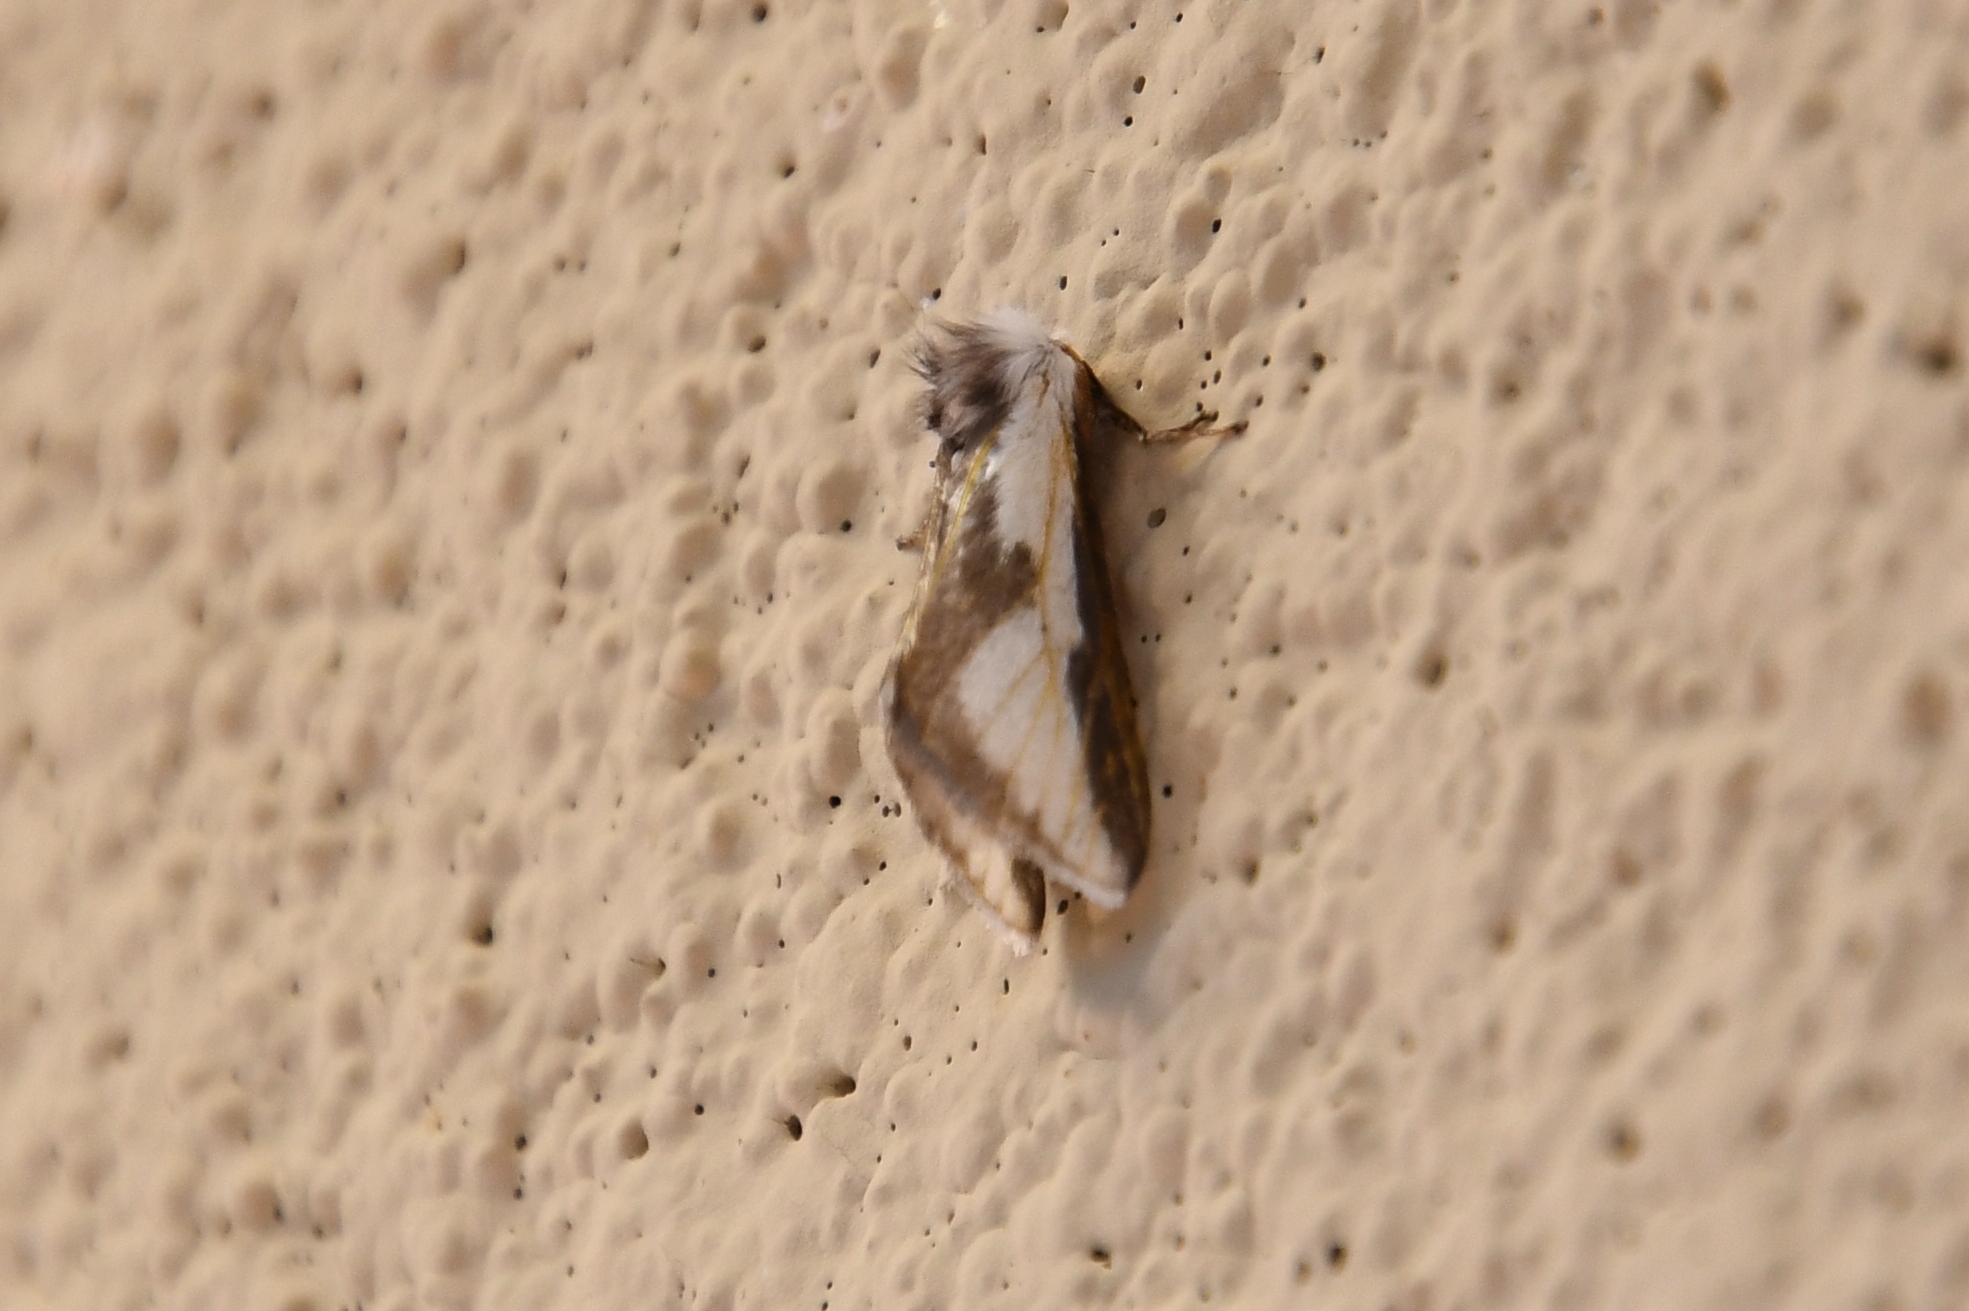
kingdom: Animalia
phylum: Arthropoda
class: Insecta
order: Lepidoptera
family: Megalopygidae
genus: Norape
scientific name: Norape tener
